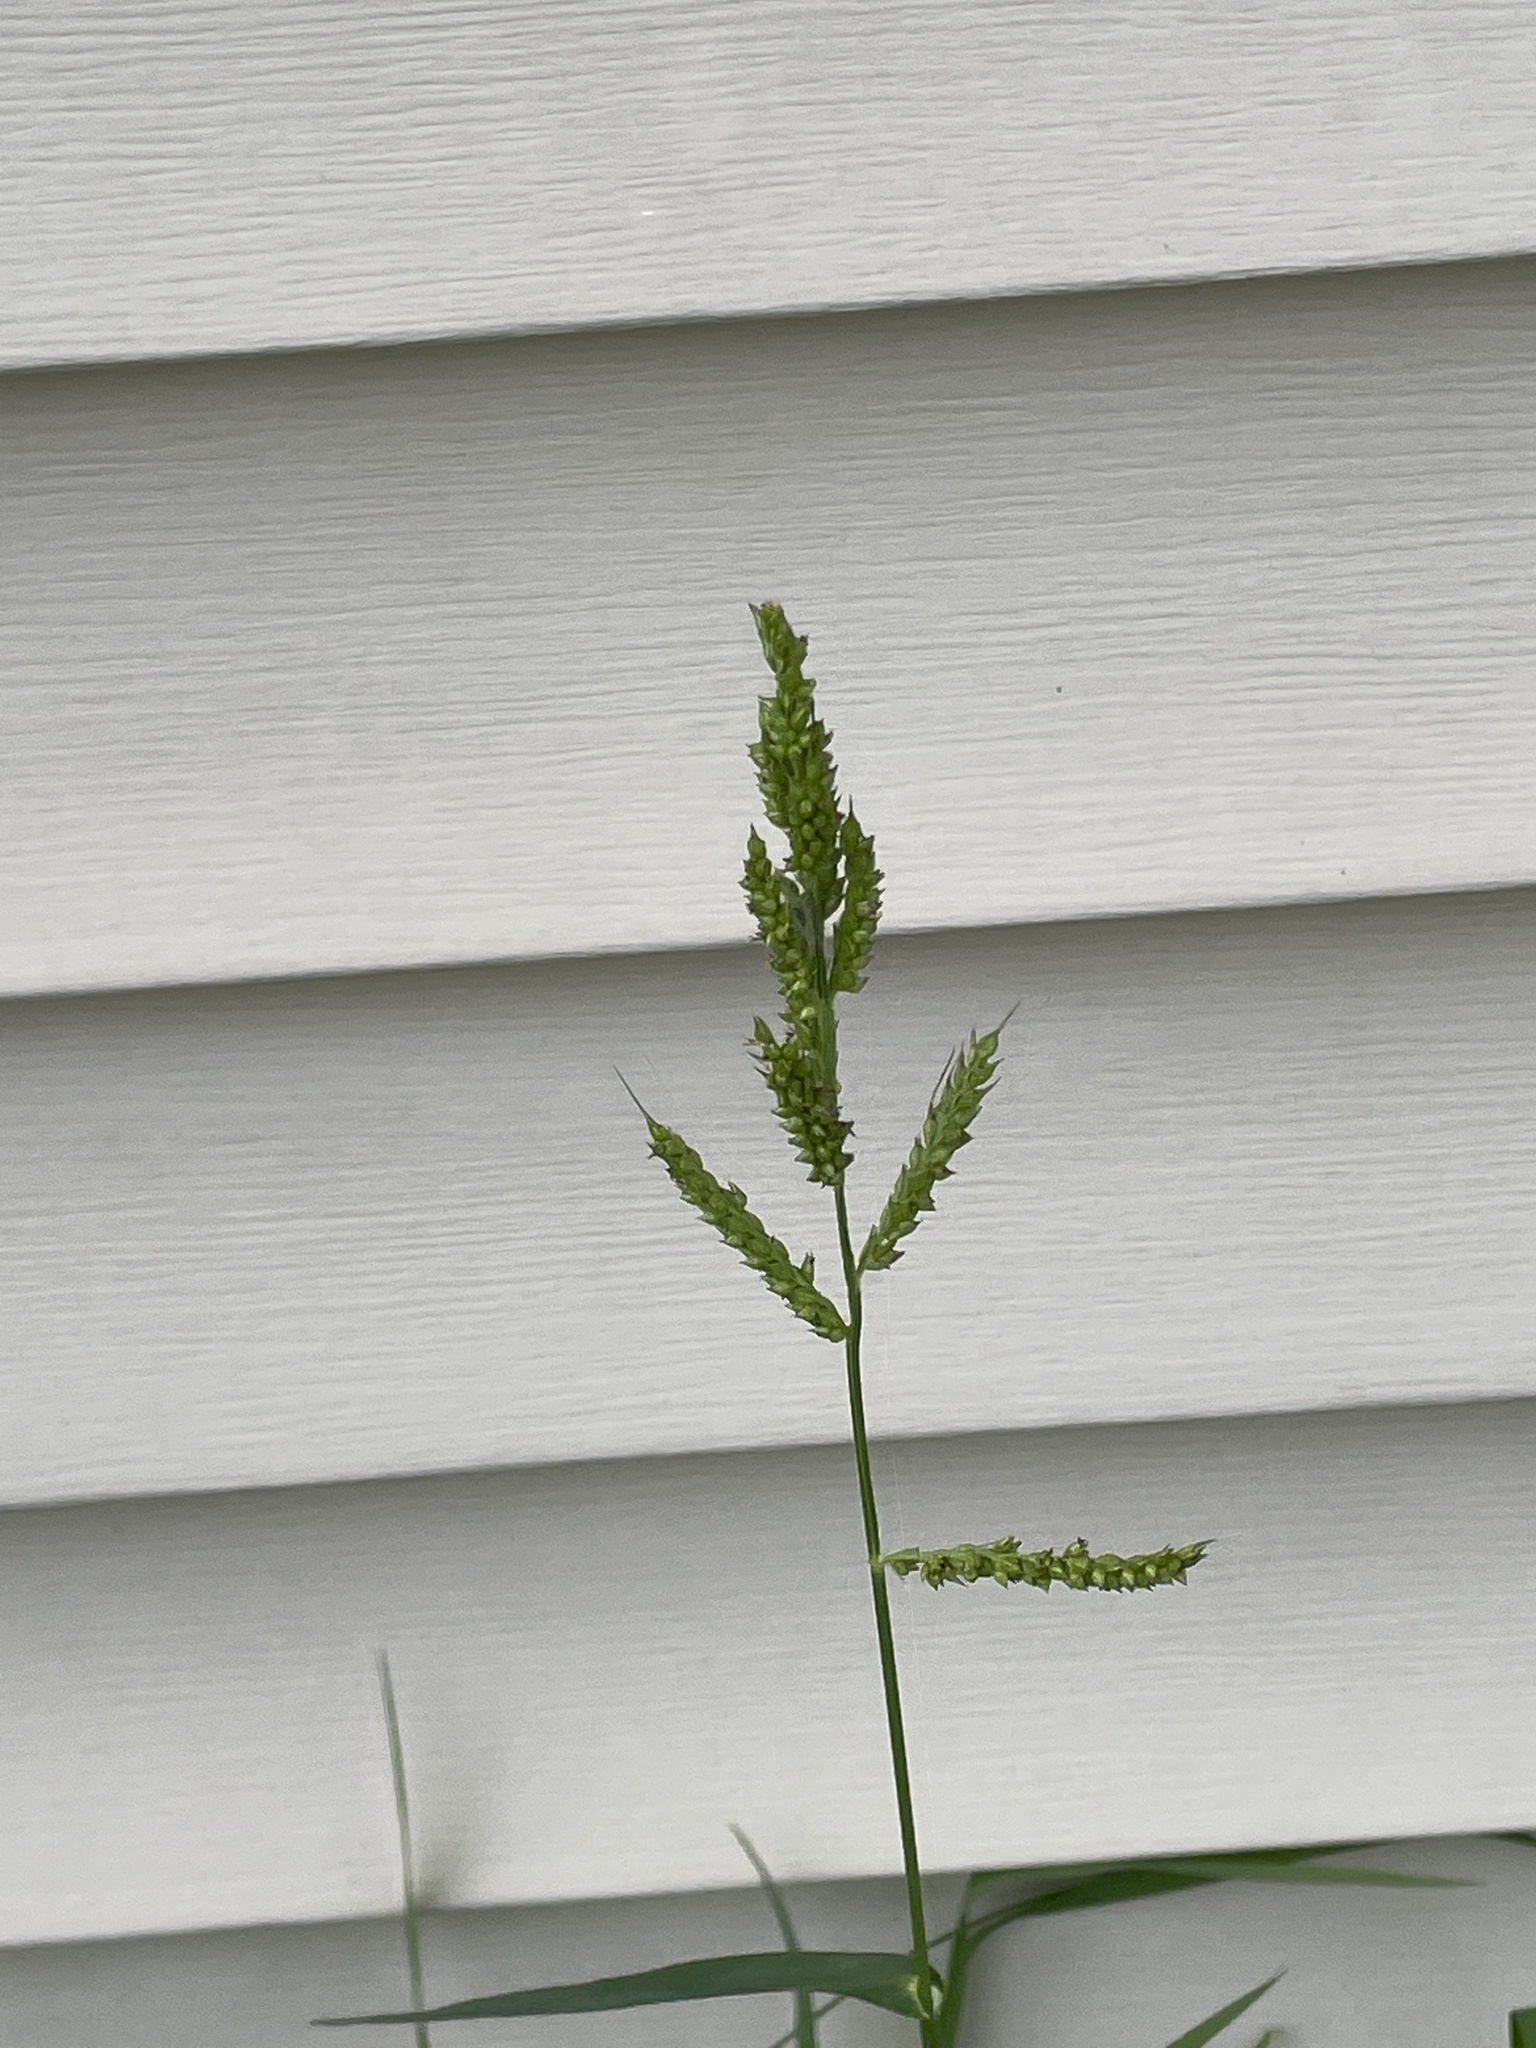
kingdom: Plantae
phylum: Tracheophyta
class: Liliopsida
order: Poales
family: Poaceae
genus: Echinochloa
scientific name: Echinochloa crus-galli
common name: Cockspur
